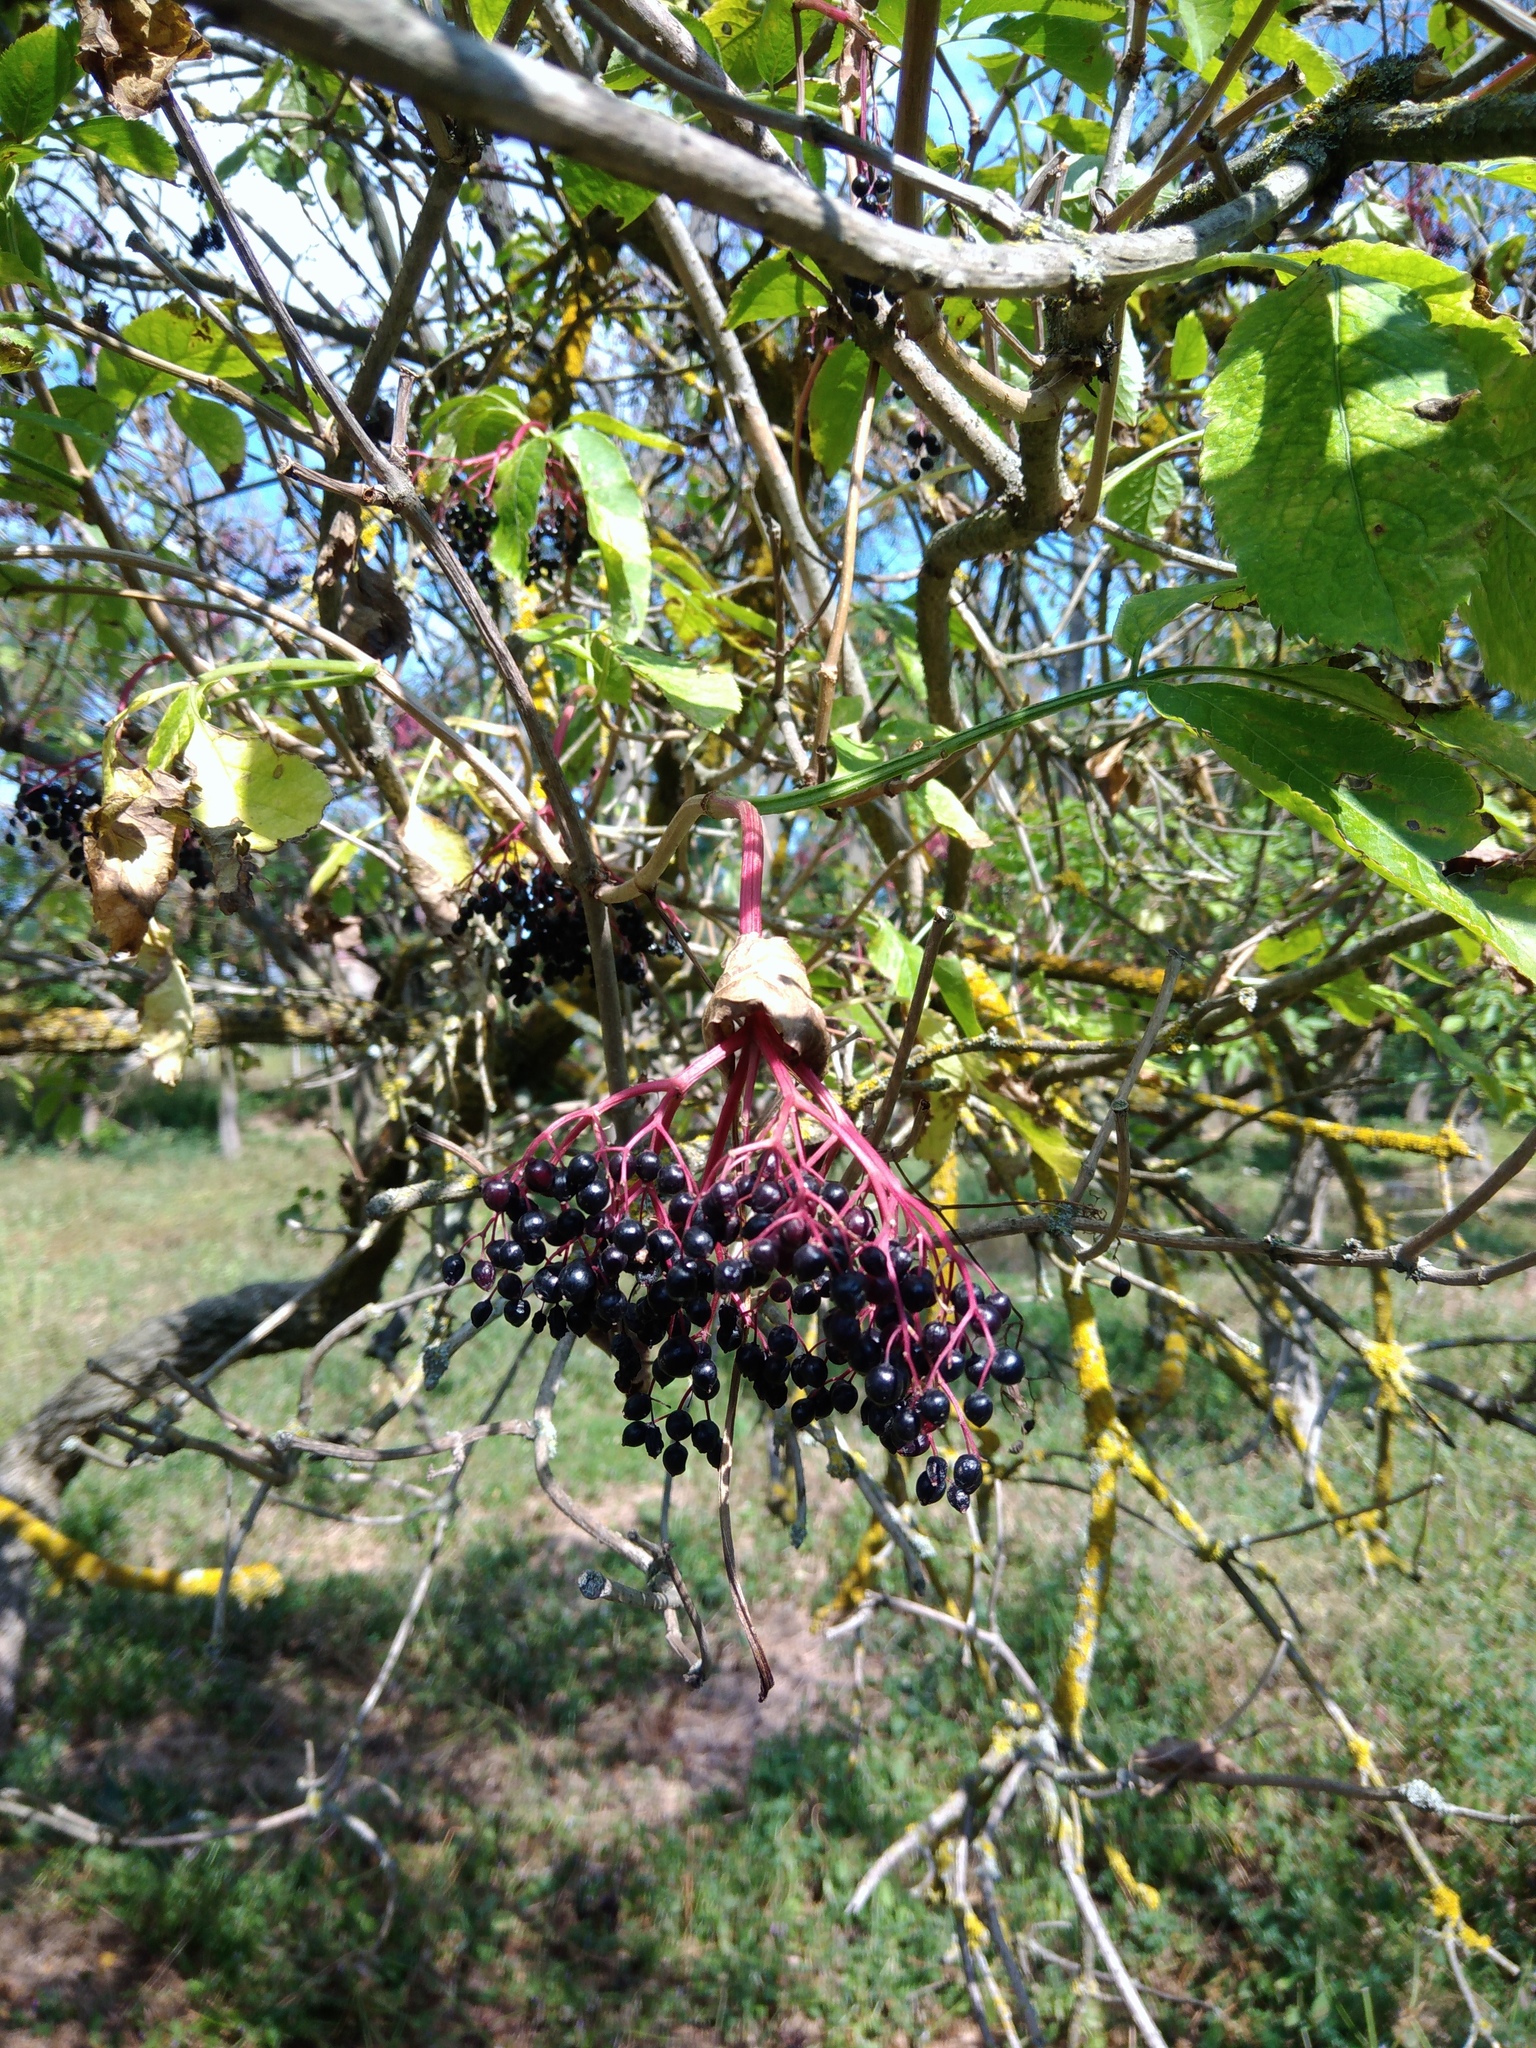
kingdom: Plantae
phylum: Tracheophyta
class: Magnoliopsida
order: Dipsacales
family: Viburnaceae
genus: Sambucus
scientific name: Sambucus nigra
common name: Elder
